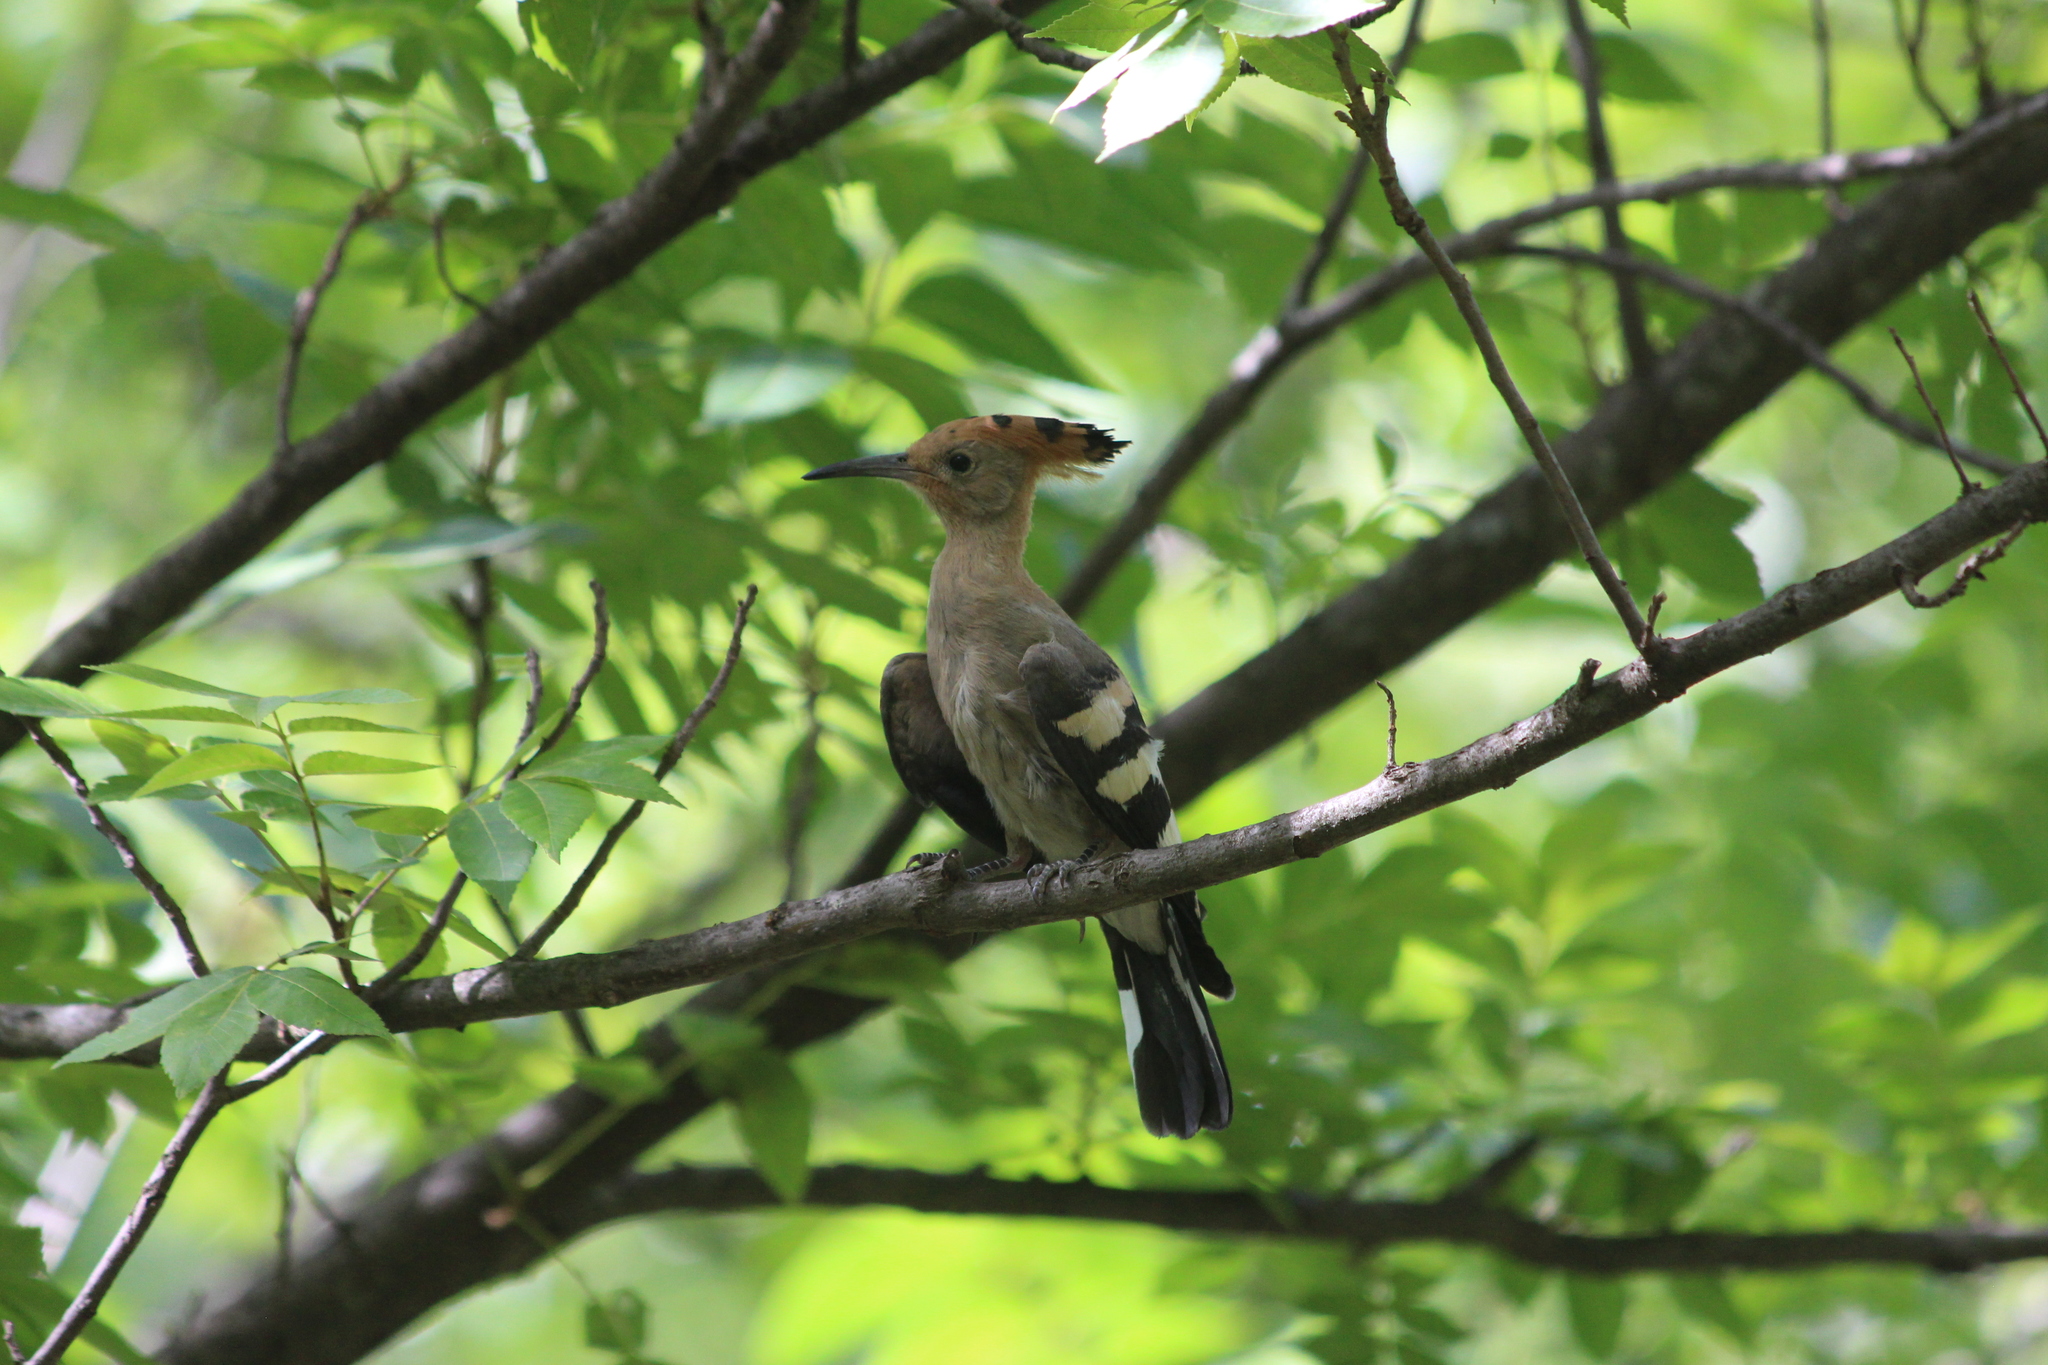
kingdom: Animalia
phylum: Chordata
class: Aves
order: Bucerotiformes
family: Upupidae
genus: Upupa
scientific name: Upupa epops
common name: Eurasian hoopoe
